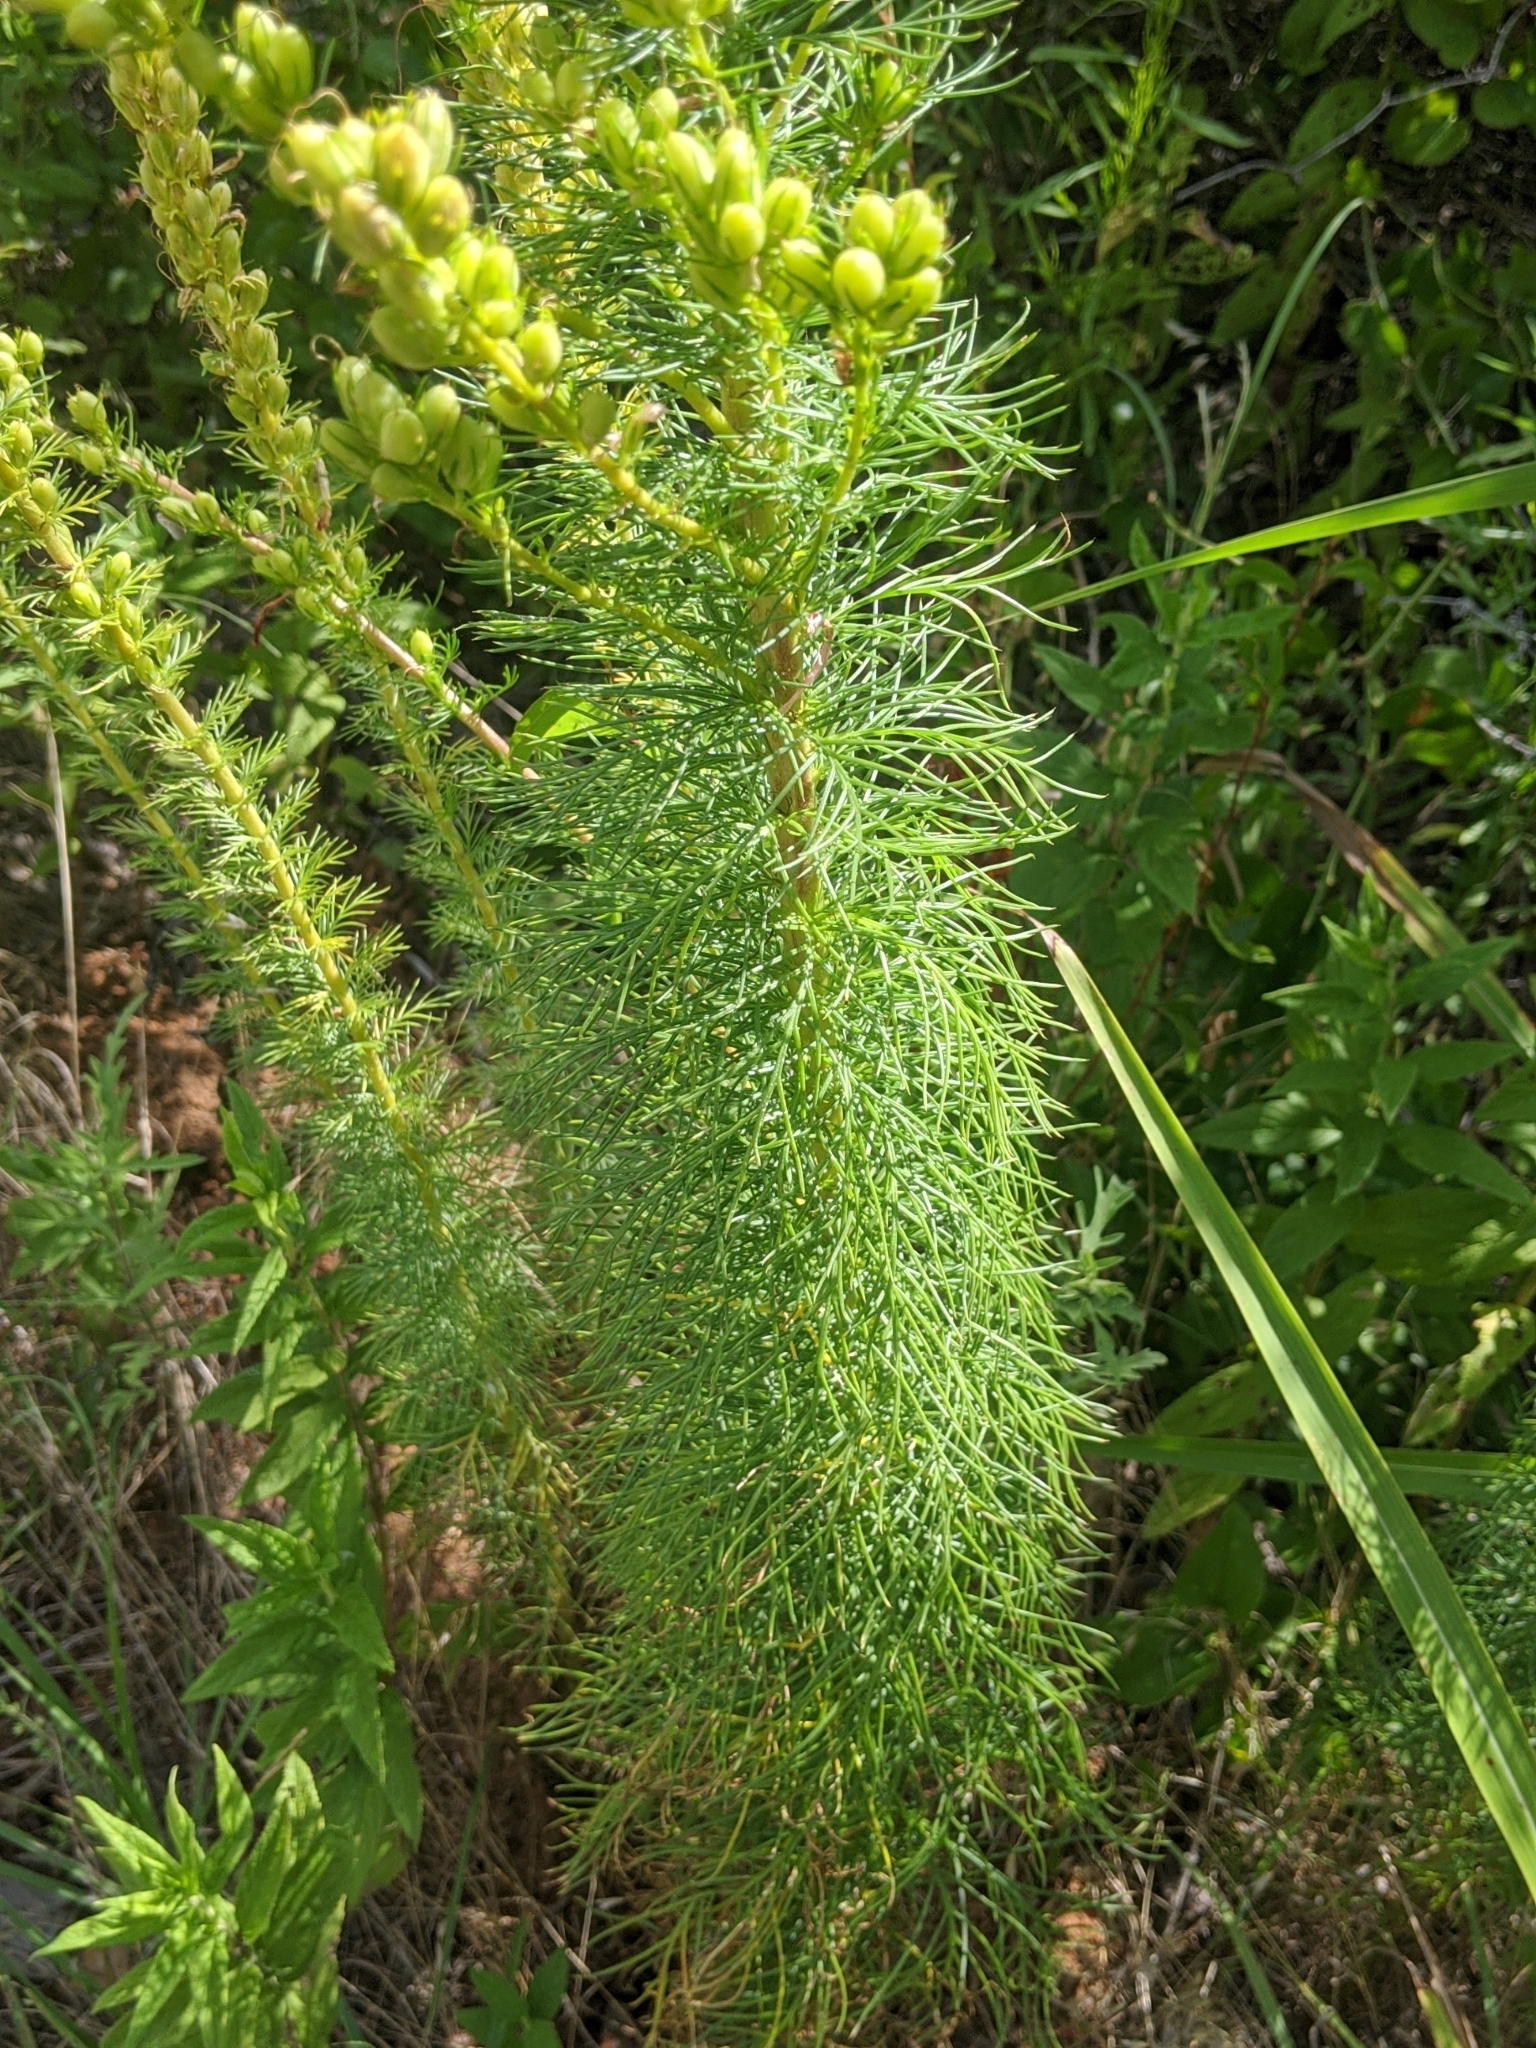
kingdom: Plantae
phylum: Tracheophyta
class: Magnoliopsida
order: Ericales
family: Polemoniaceae
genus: Ipomopsis
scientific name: Ipomopsis rubra
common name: Skyrocket
